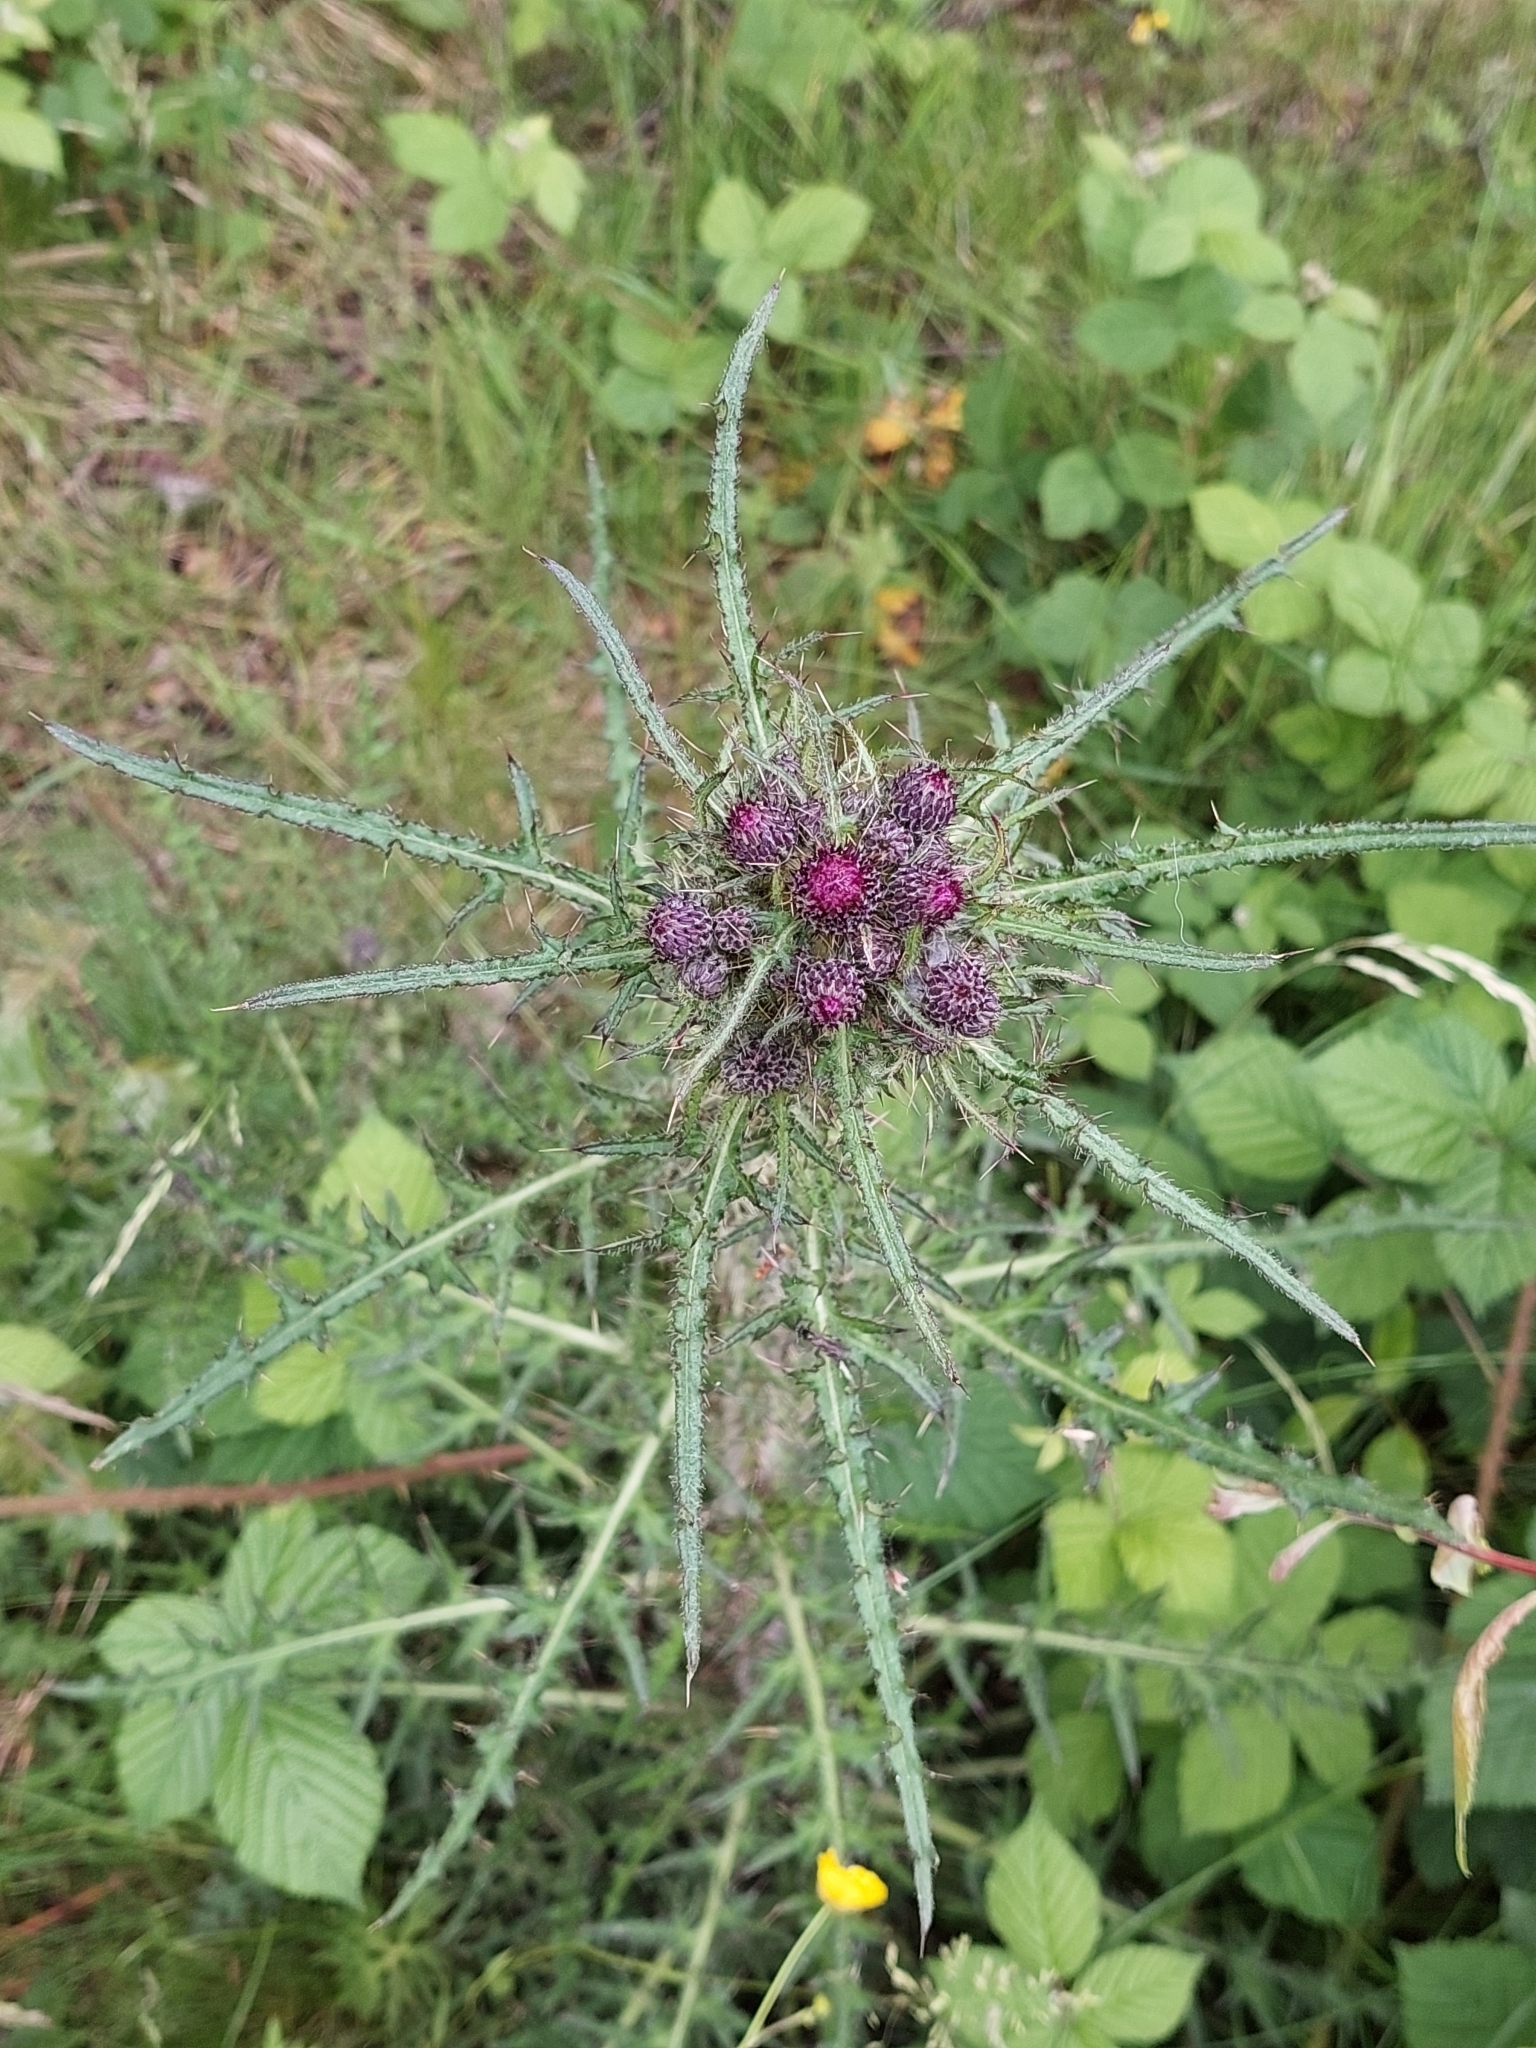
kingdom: Plantae
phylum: Tracheophyta
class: Magnoliopsida
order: Asterales
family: Asteraceae
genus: Cirsium
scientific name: Cirsium palustre
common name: Marsh thistle
